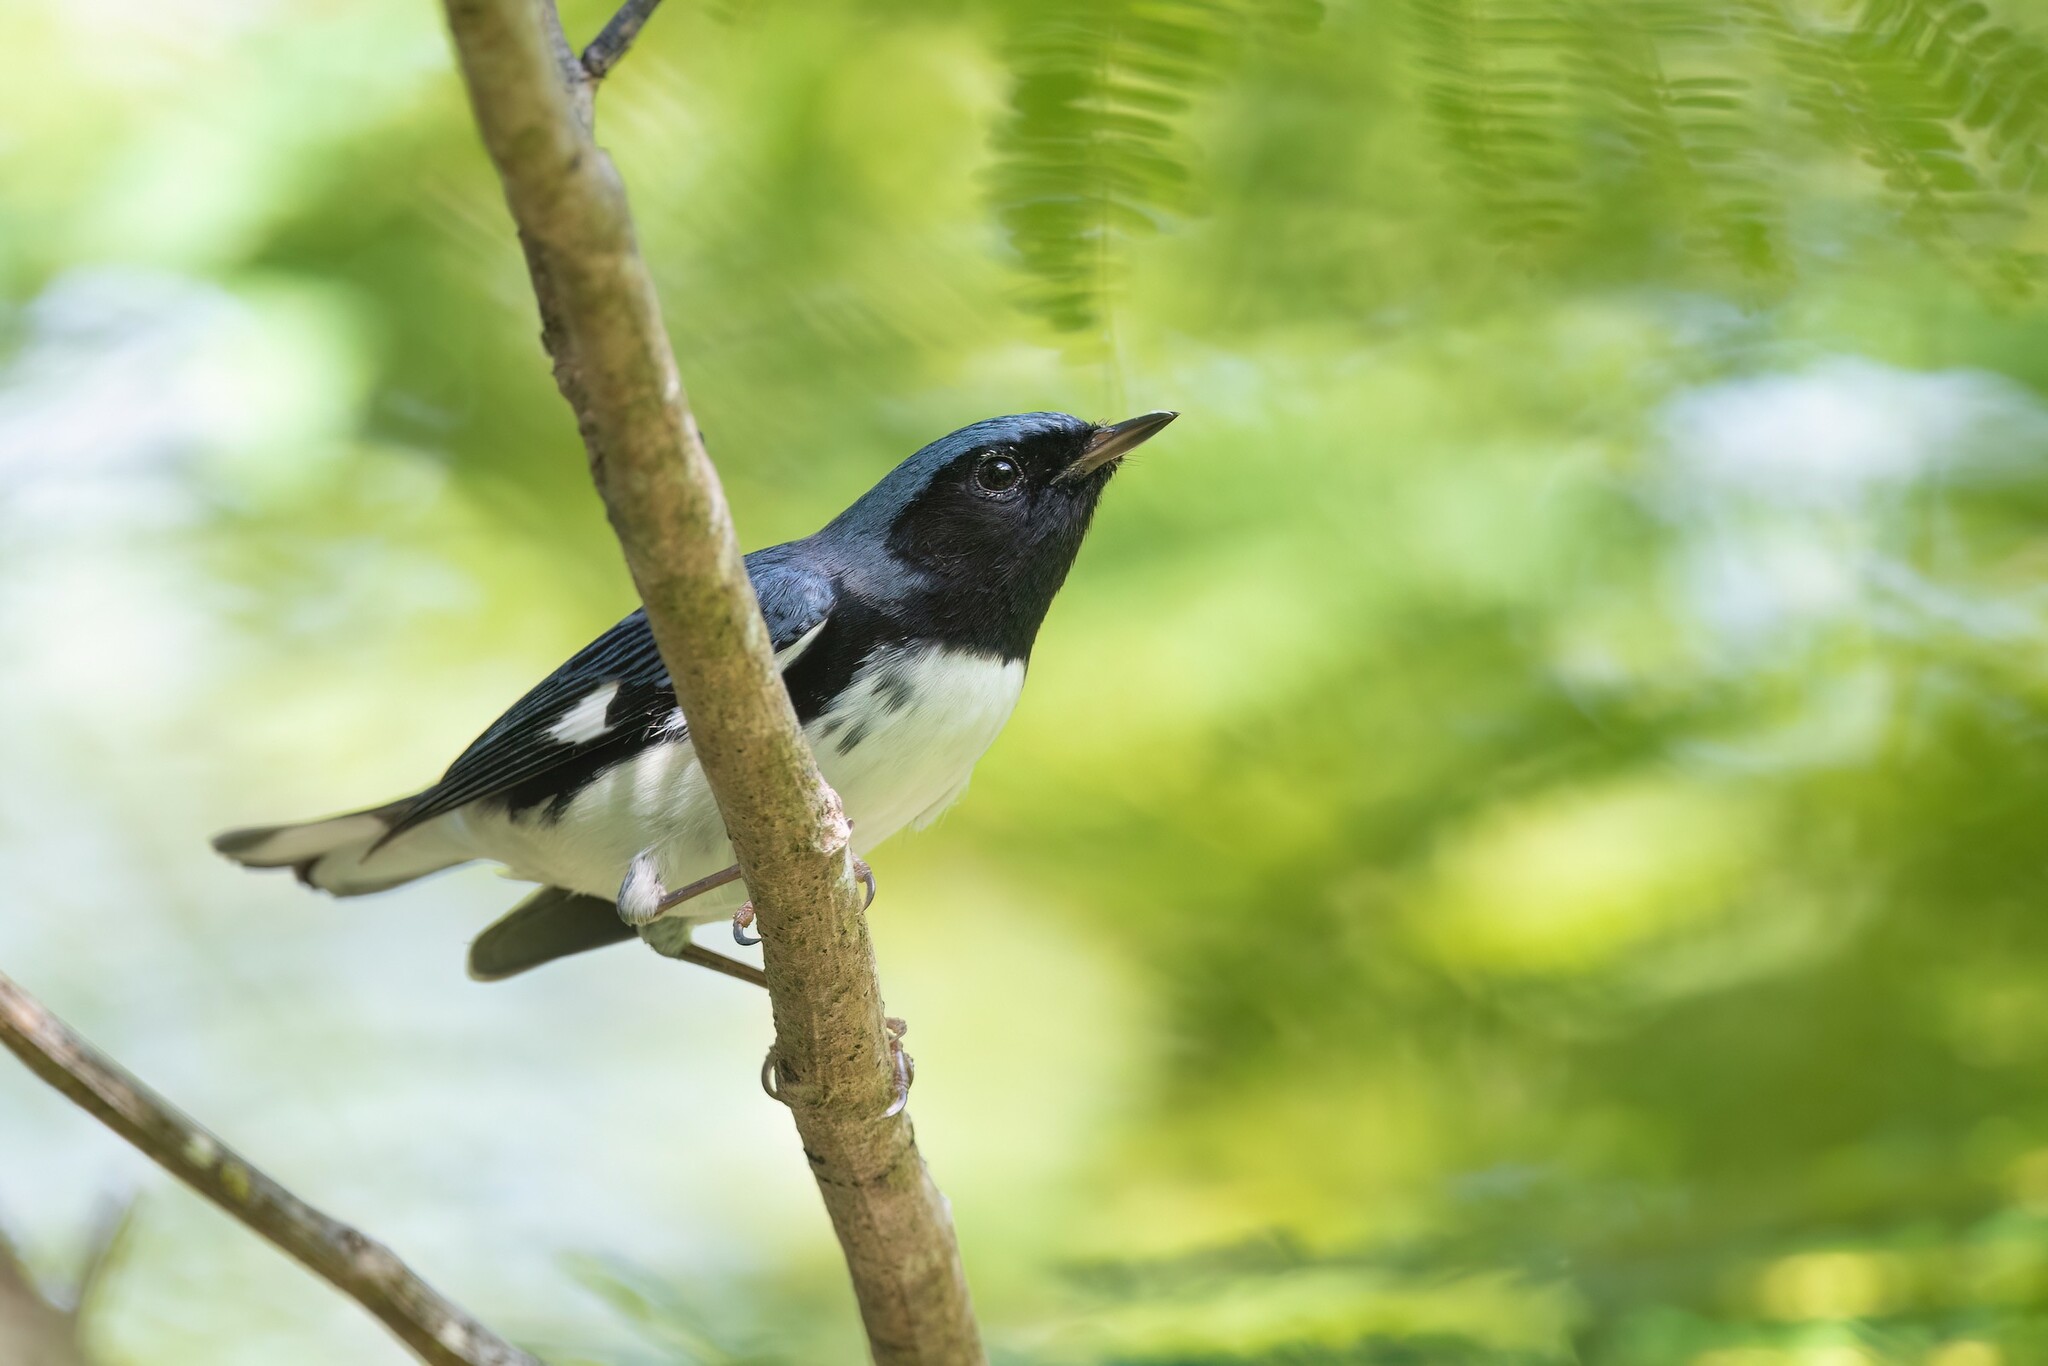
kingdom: Animalia
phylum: Chordata
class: Aves
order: Passeriformes
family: Parulidae
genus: Setophaga
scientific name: Setophaga caerulescens
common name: Black-throated blue warbler
